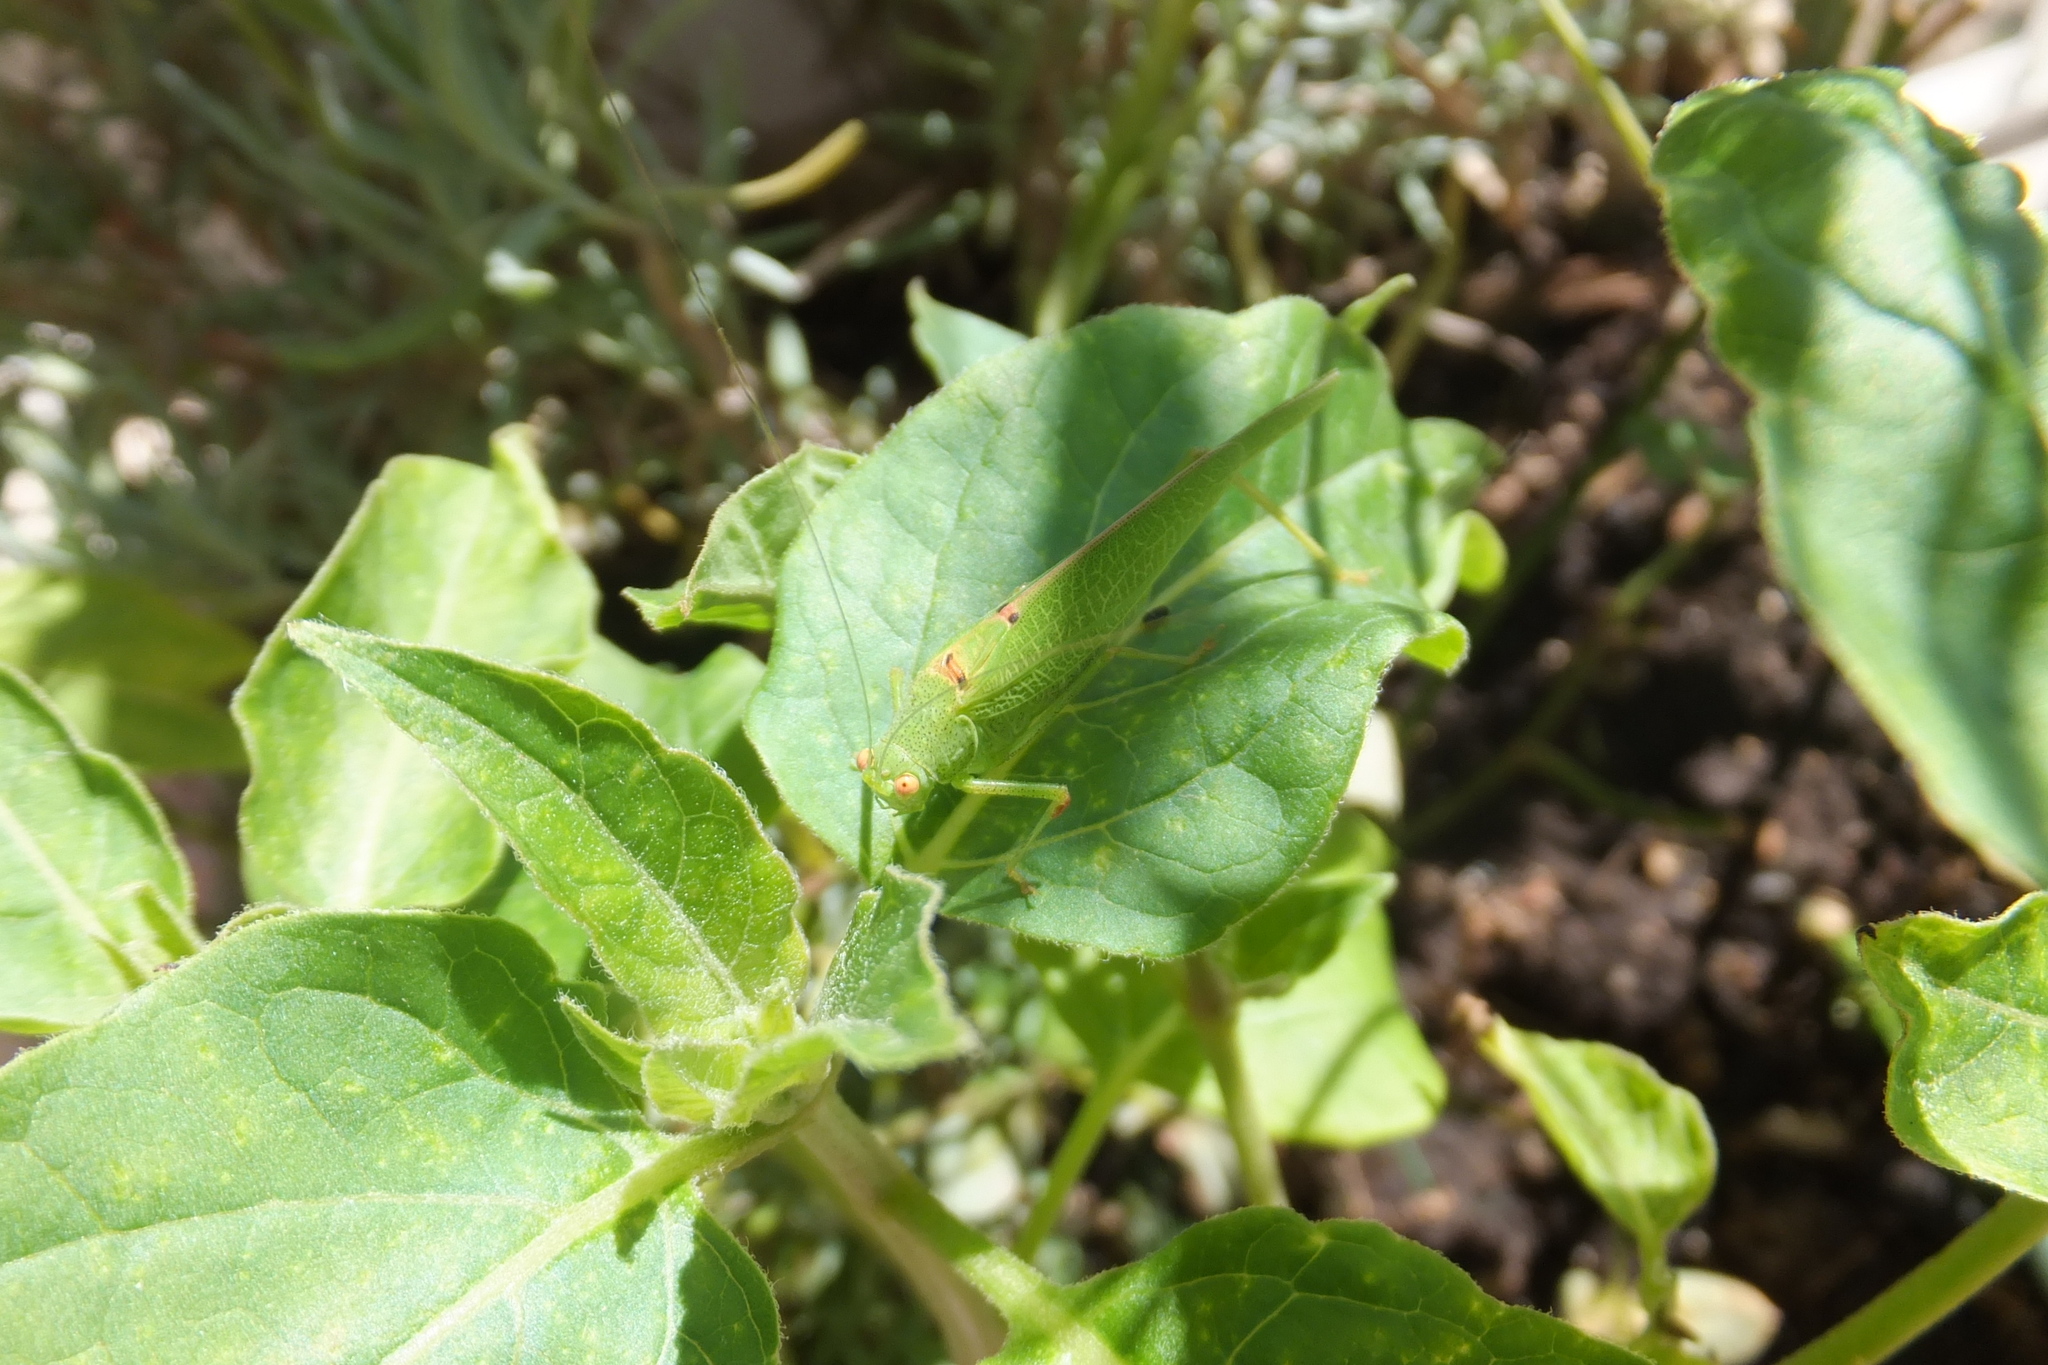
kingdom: Animalia
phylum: Arthropoda
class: Insecta
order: Orthoptera
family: Tettigoniidae
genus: Phaneroptera
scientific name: Phaneroptera nana
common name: Southern sickle bush-cricket
